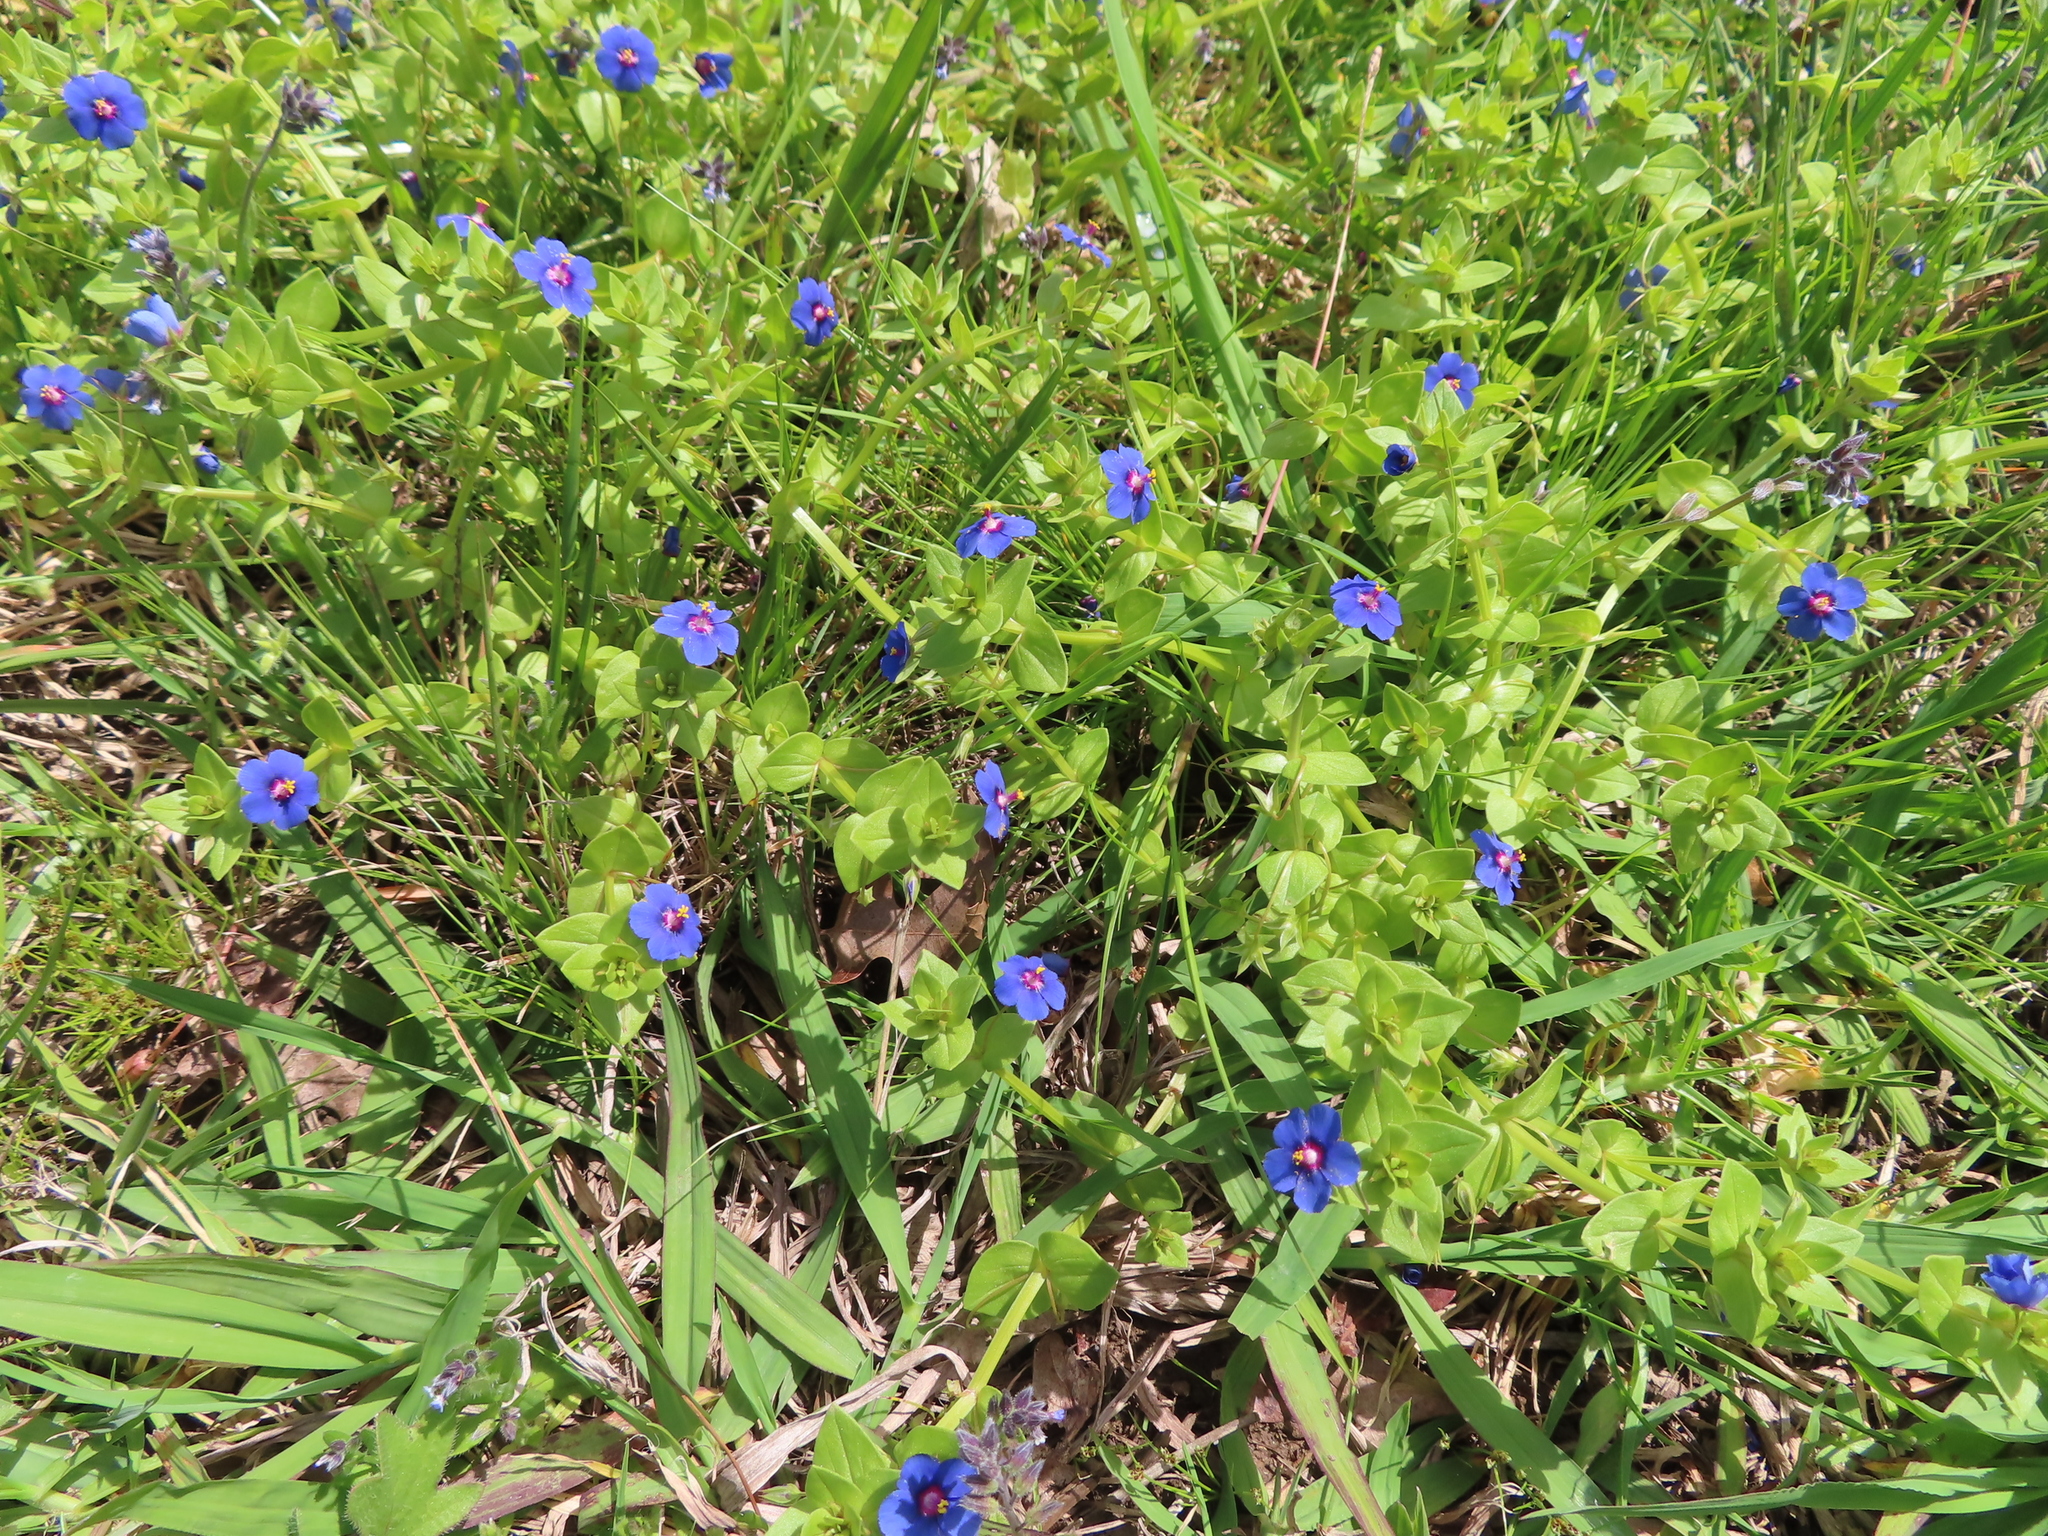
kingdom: Plantae
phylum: Tracheophyta
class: Magnoliopsida
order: Ericales
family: Primulaceae
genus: Lysimachia
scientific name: Lysimachia loeflingii
